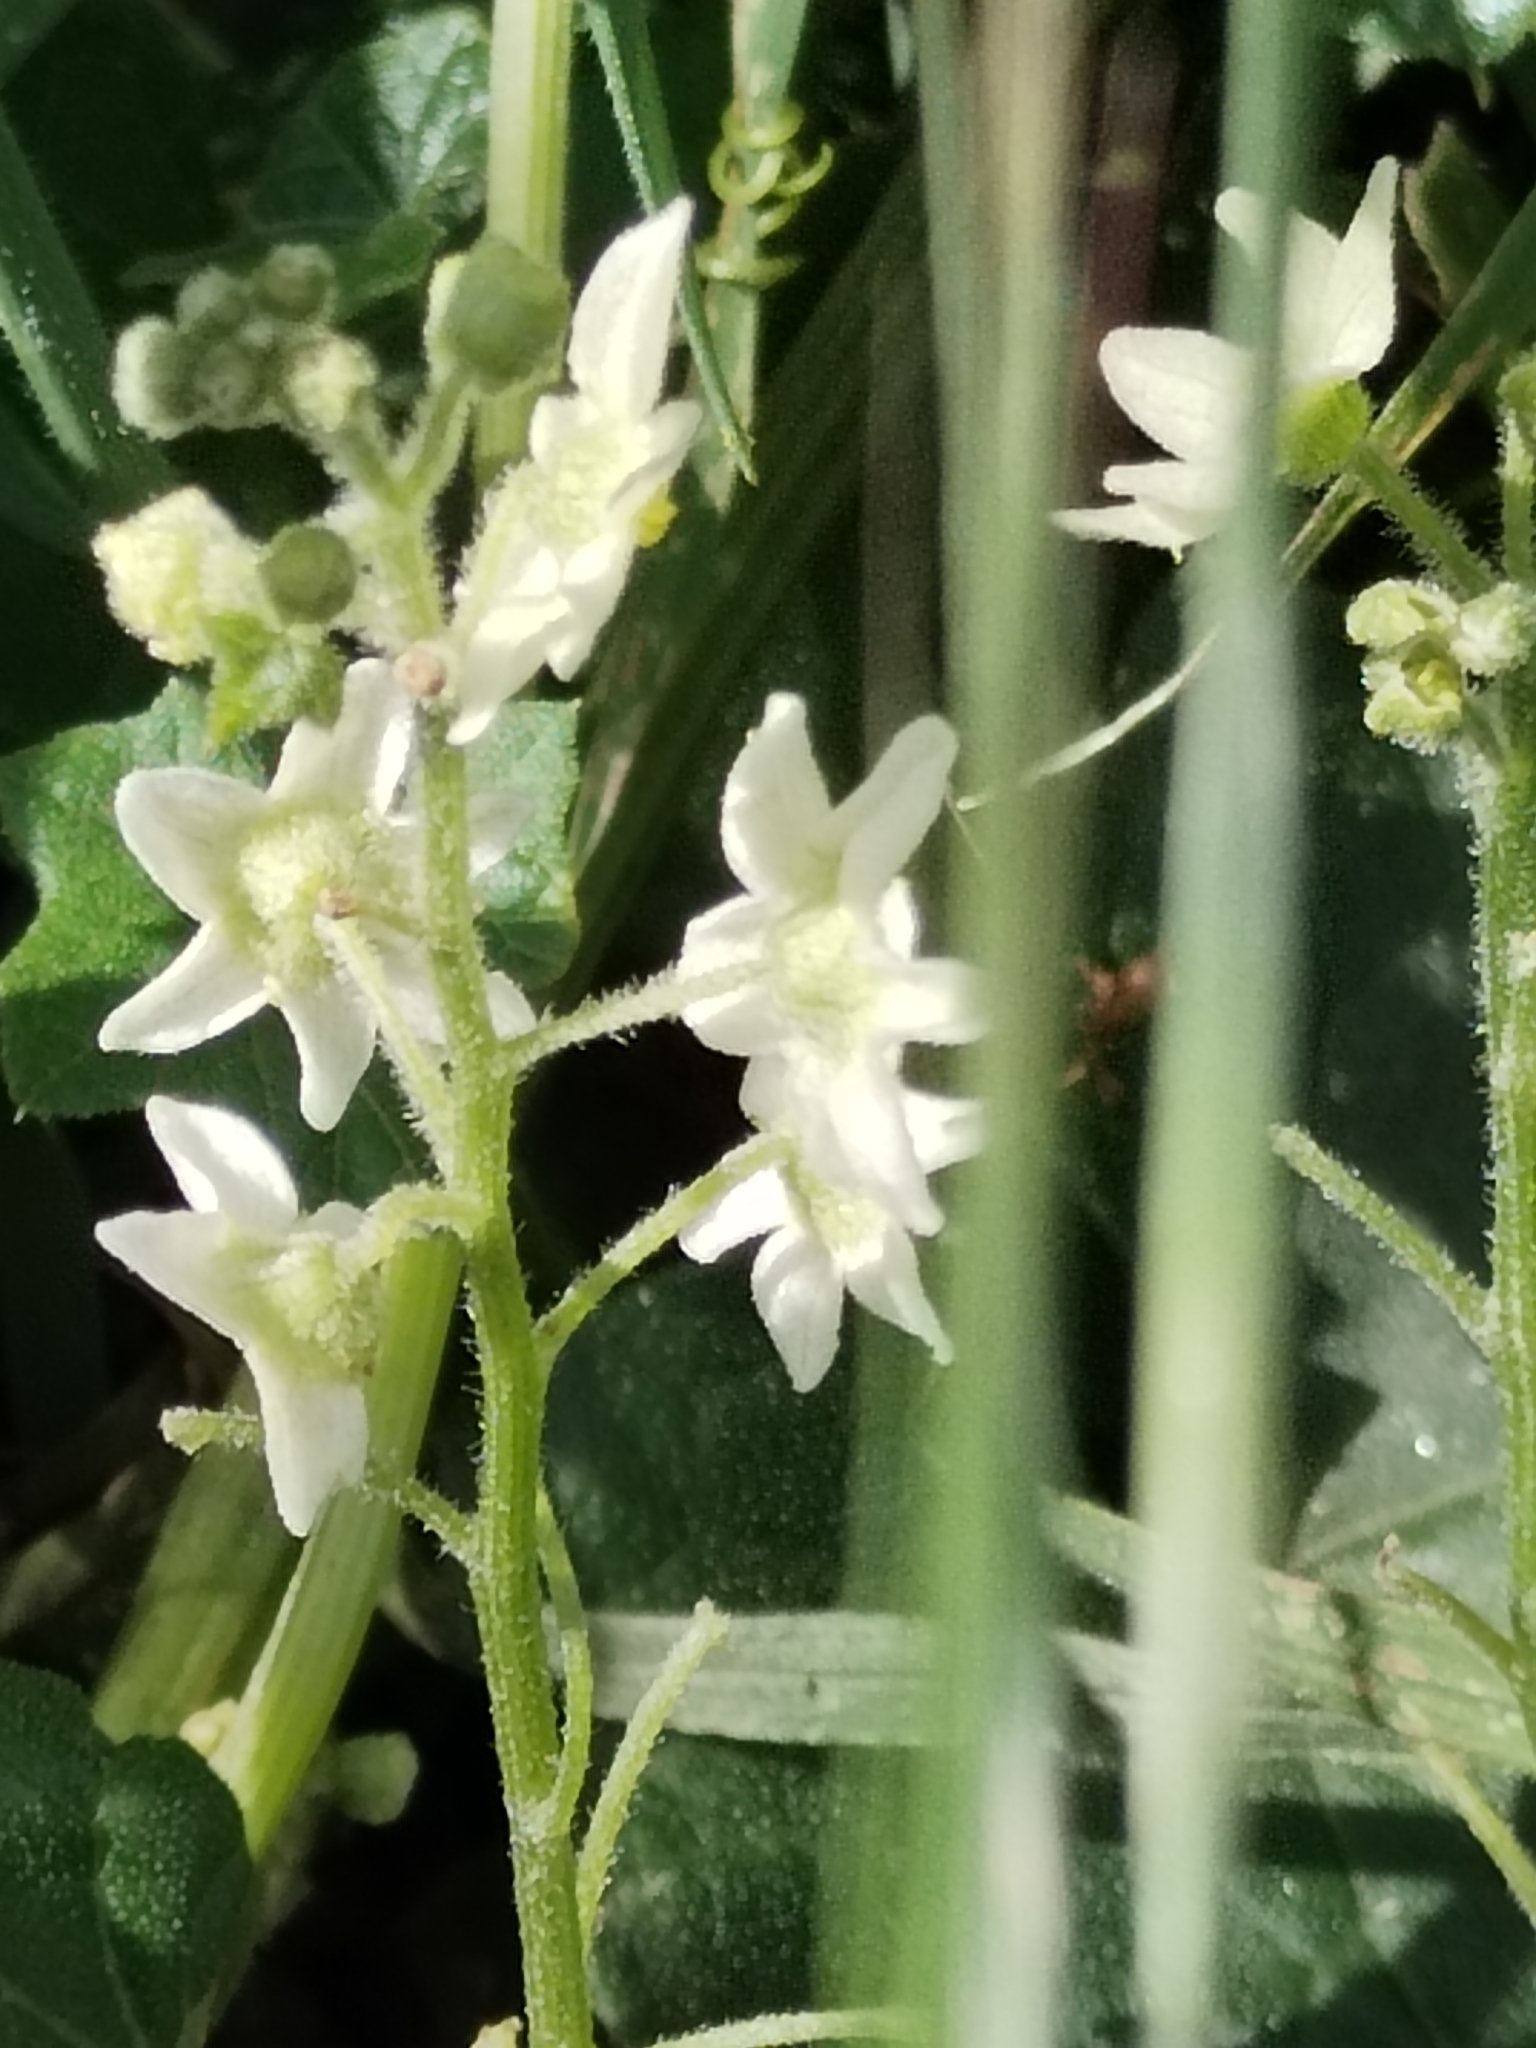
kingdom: Plantae
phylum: Tracheophyta
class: Magnoliopsida
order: Cucurbitales
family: Cucurbitaceae
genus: Marah
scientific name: Marah macrocarpa
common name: Cucamonga manroot
